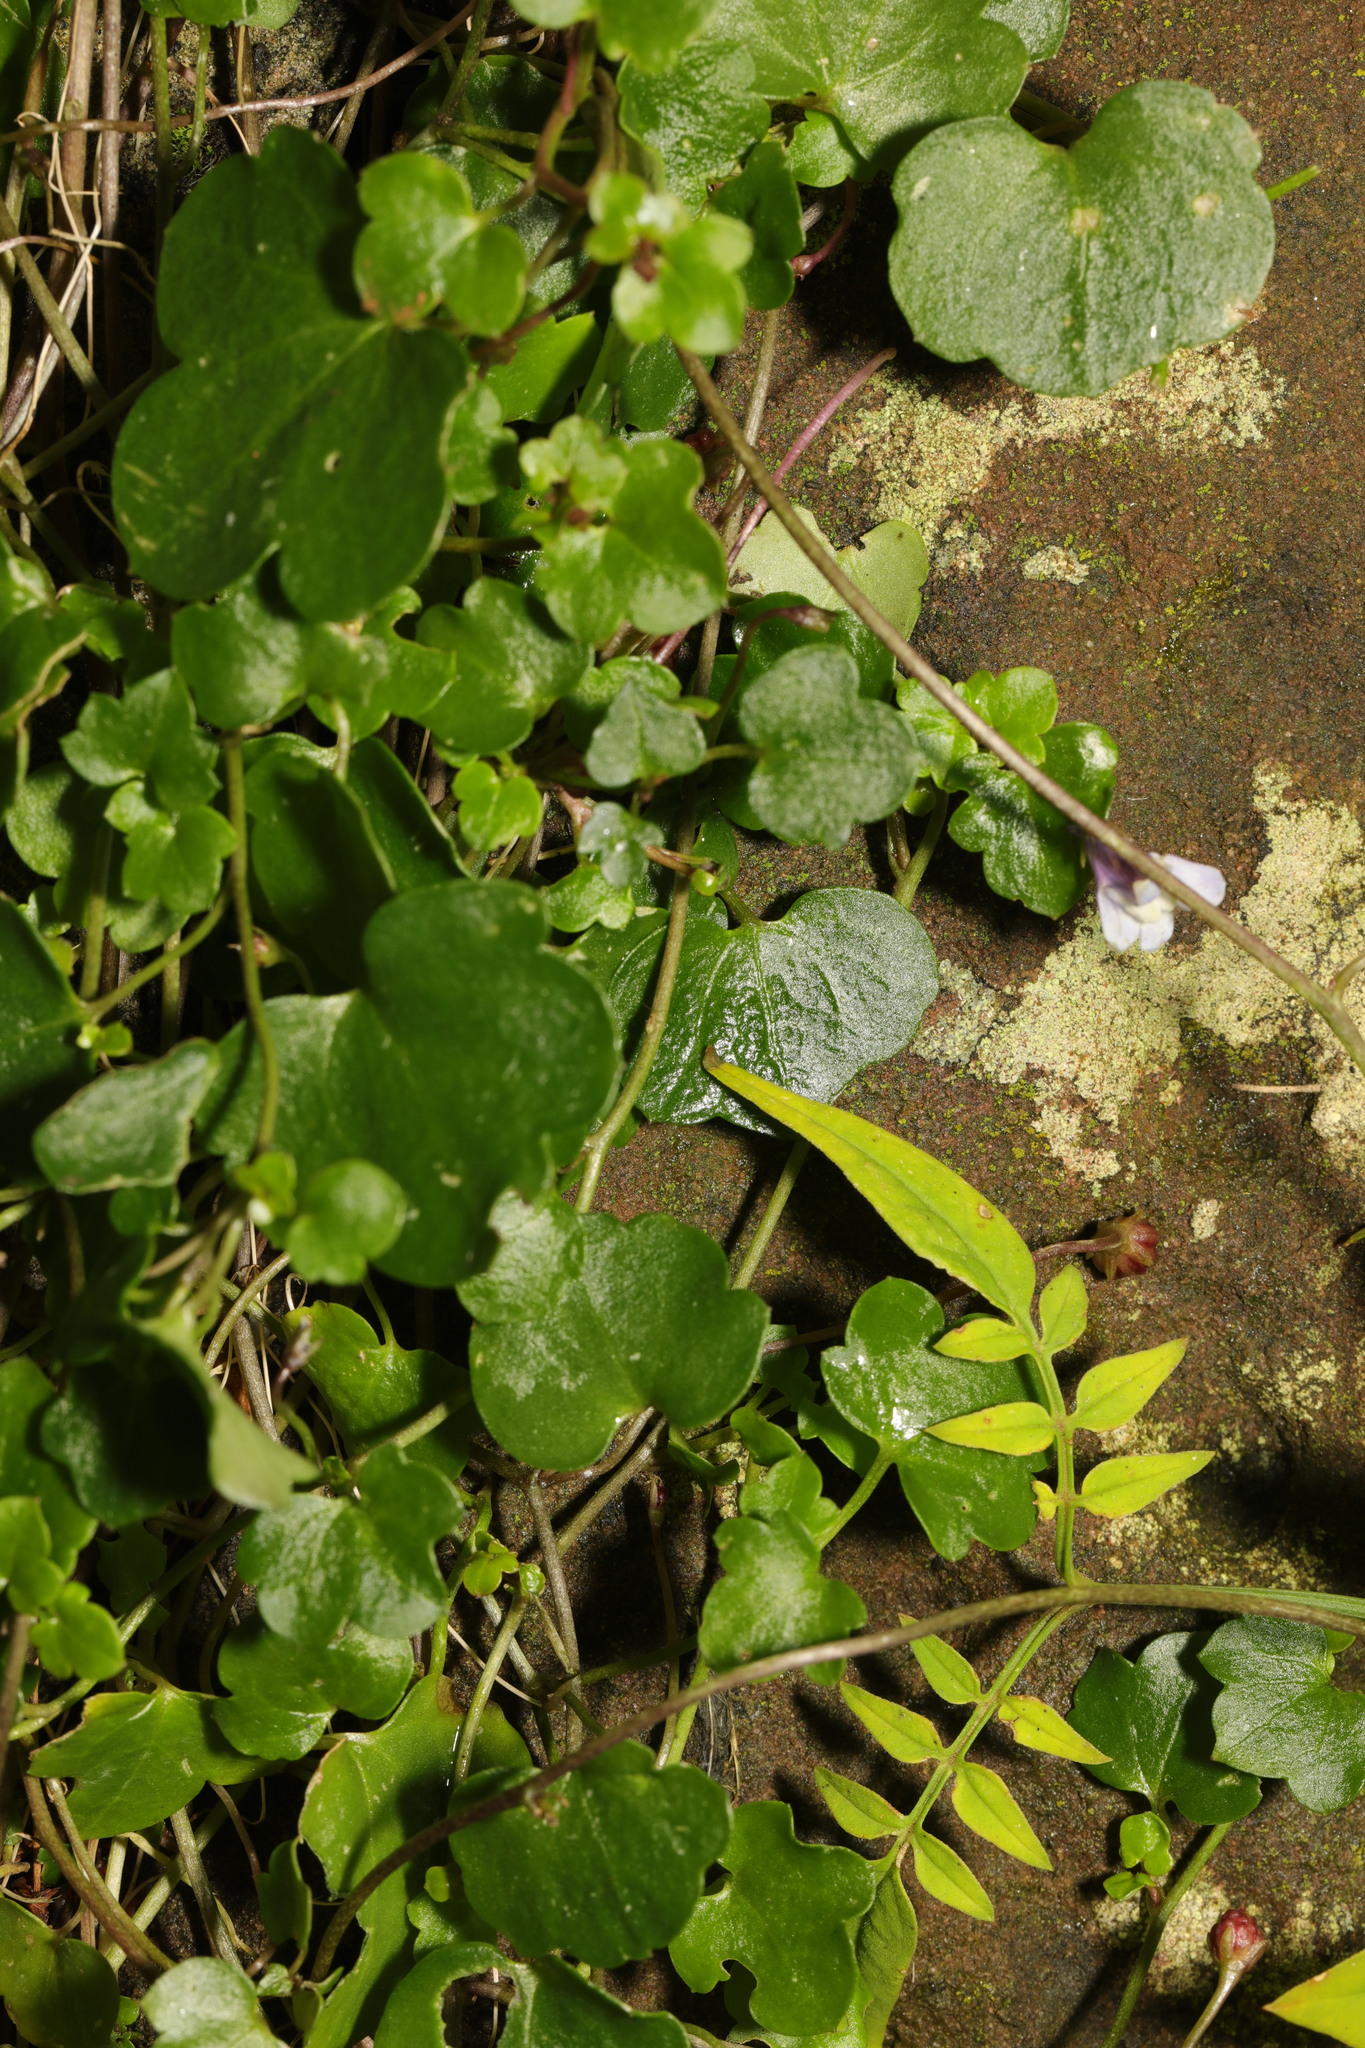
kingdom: Plantae
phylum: Tracheophyta
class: Magnoliopsida
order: Lamiales
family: Plantaginaceae
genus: Cymbalaria
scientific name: Cymbalaria muralis
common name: Ivy-leaved toadflax
